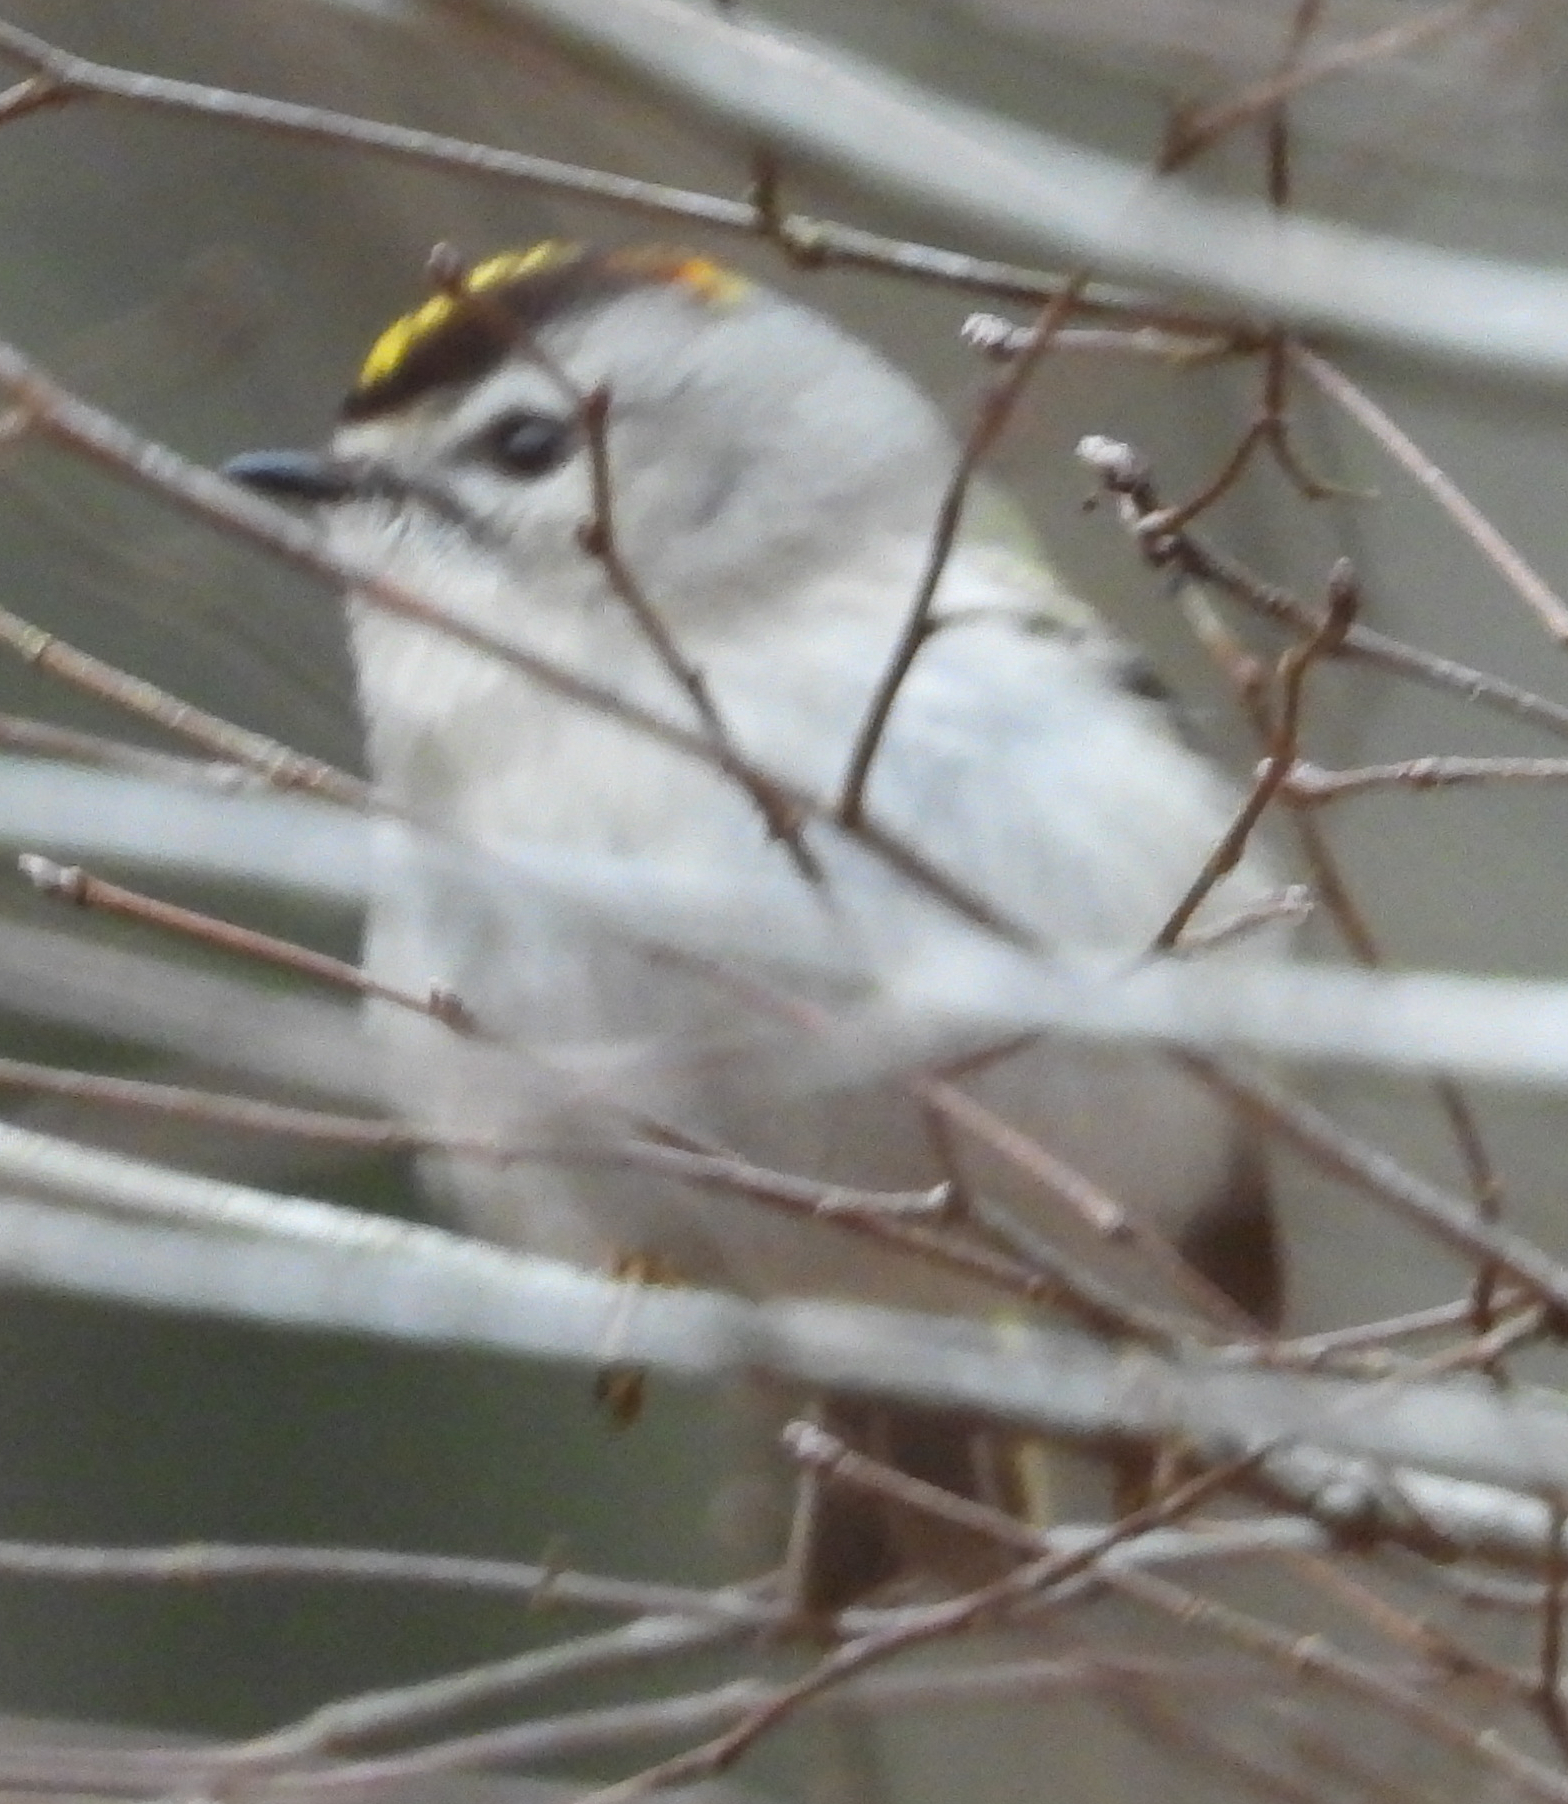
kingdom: Animalia
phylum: Chordata
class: Aves
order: Passeriformes
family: Regulidae
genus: Regulus
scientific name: Regulus satrapa
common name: Golden-crowned kinglet
